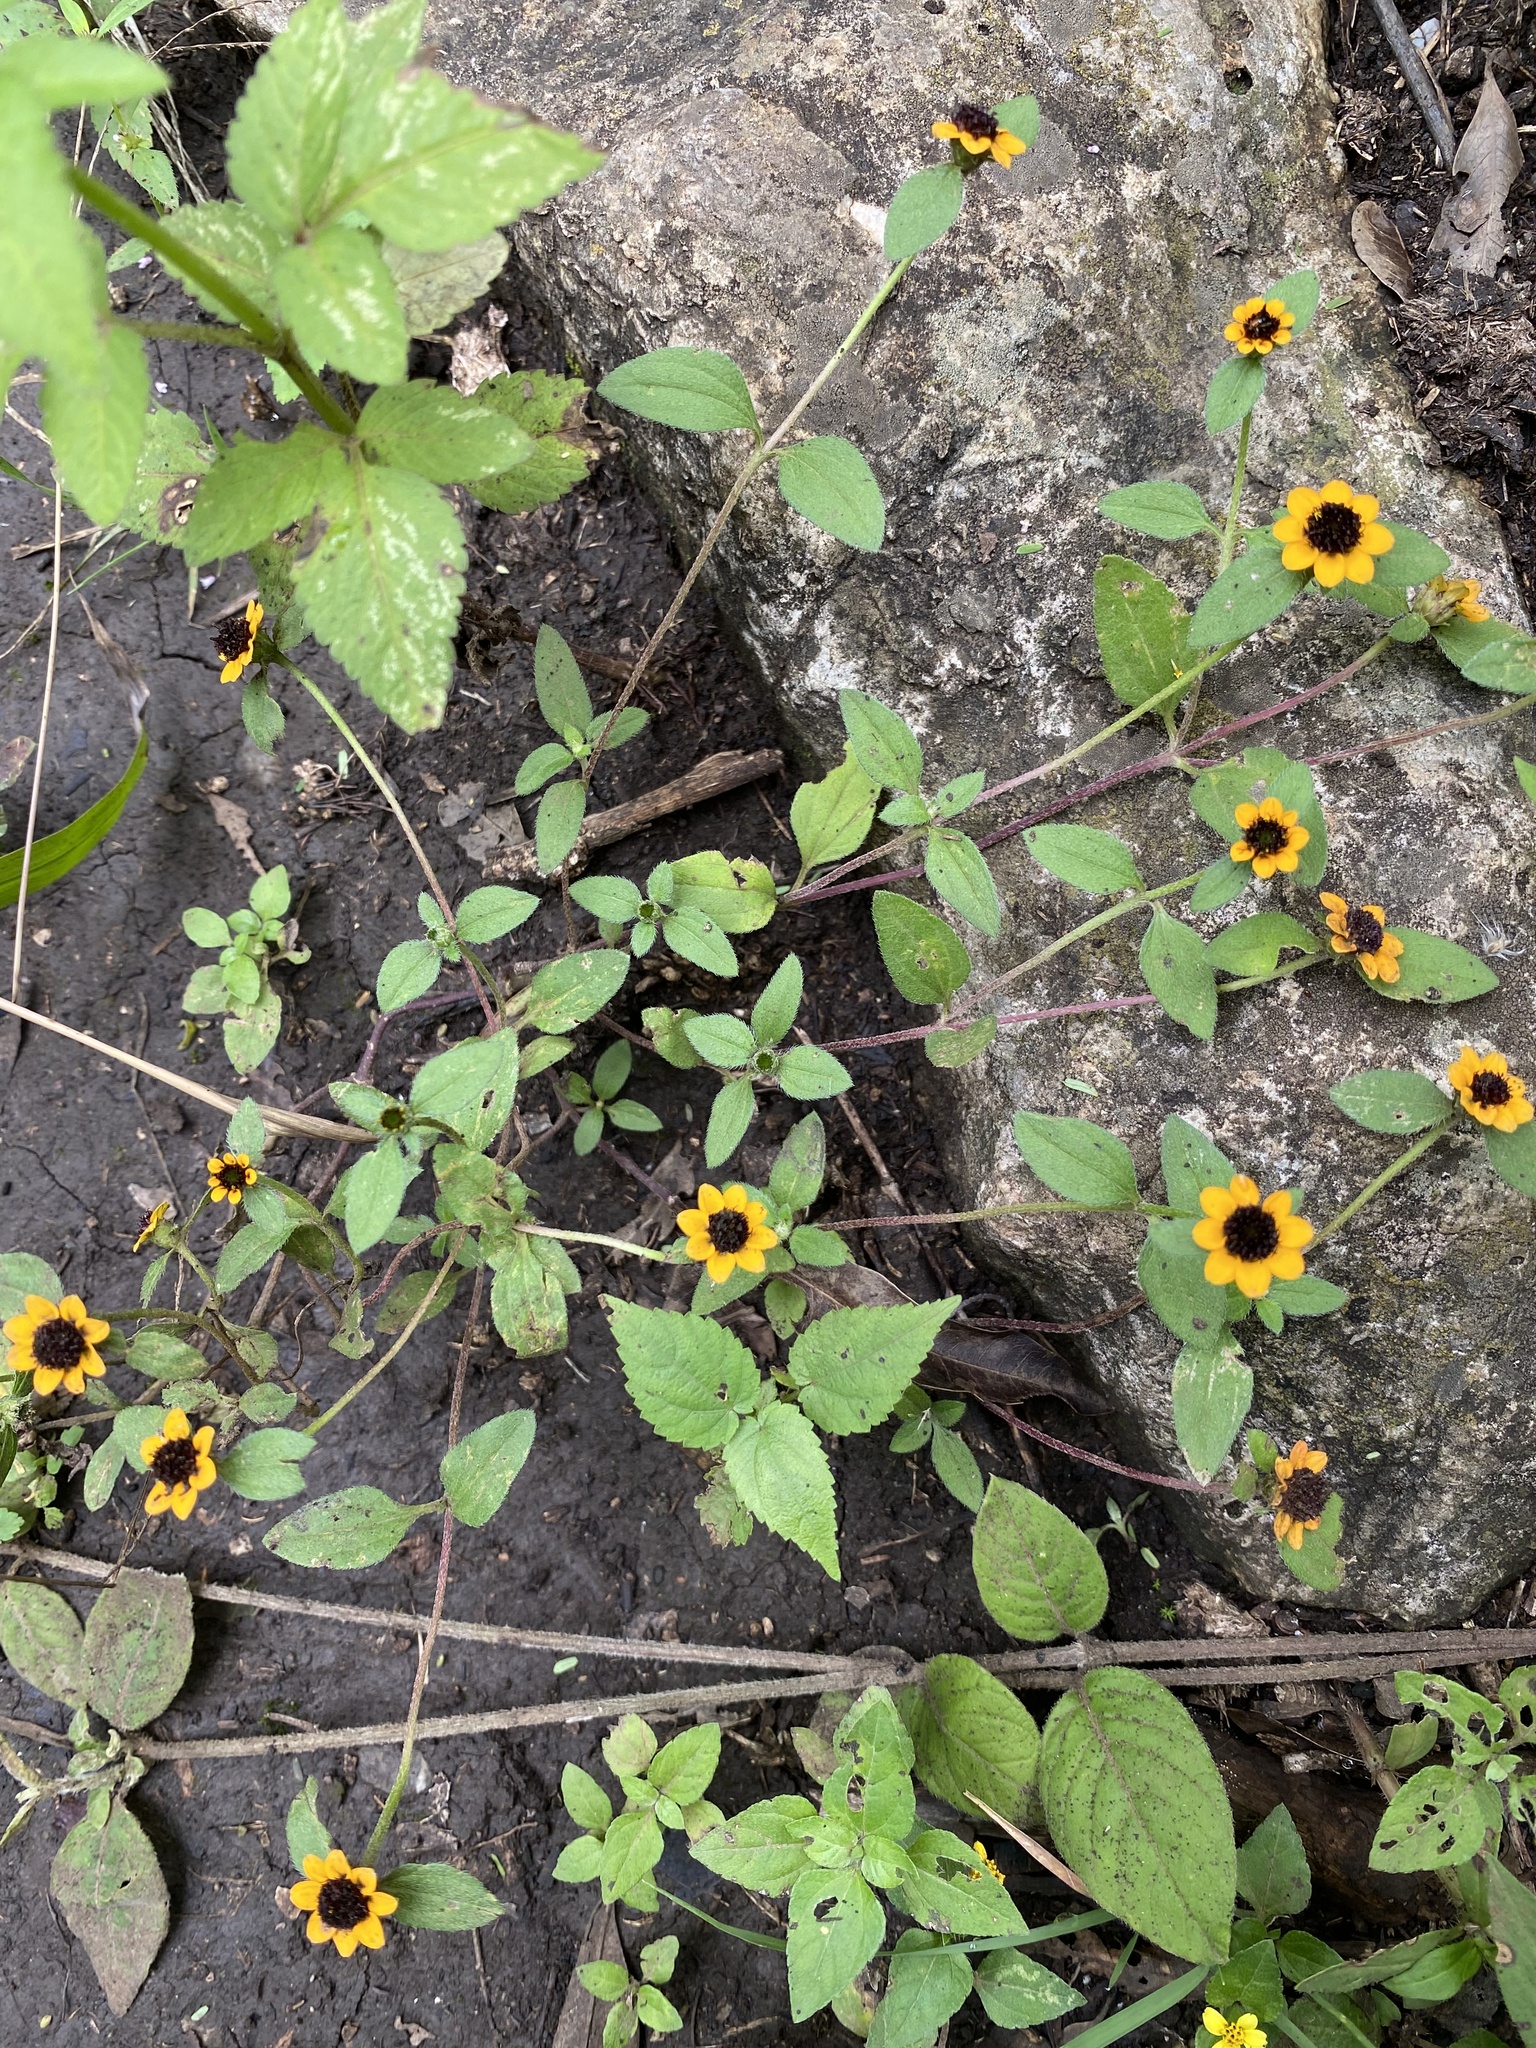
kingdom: Plantae
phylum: Tracheophyta
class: Magnoliopsida
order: Asterales
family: Asteraceae
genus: Sanvitalia
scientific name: Sanvitalia procumbens
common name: Mexican creeping zinnia
